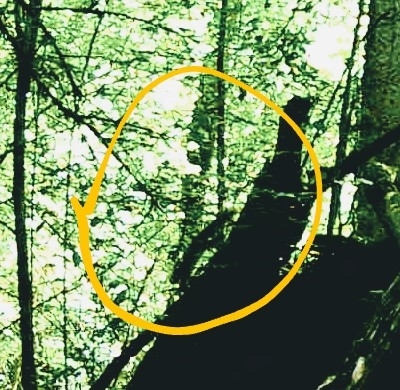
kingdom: Animalia
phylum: Chordata
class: Mammalia
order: Rodentia
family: Sciuridae
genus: Sciurus
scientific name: Sciurus vulgaris
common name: Eurasian red squirrel
